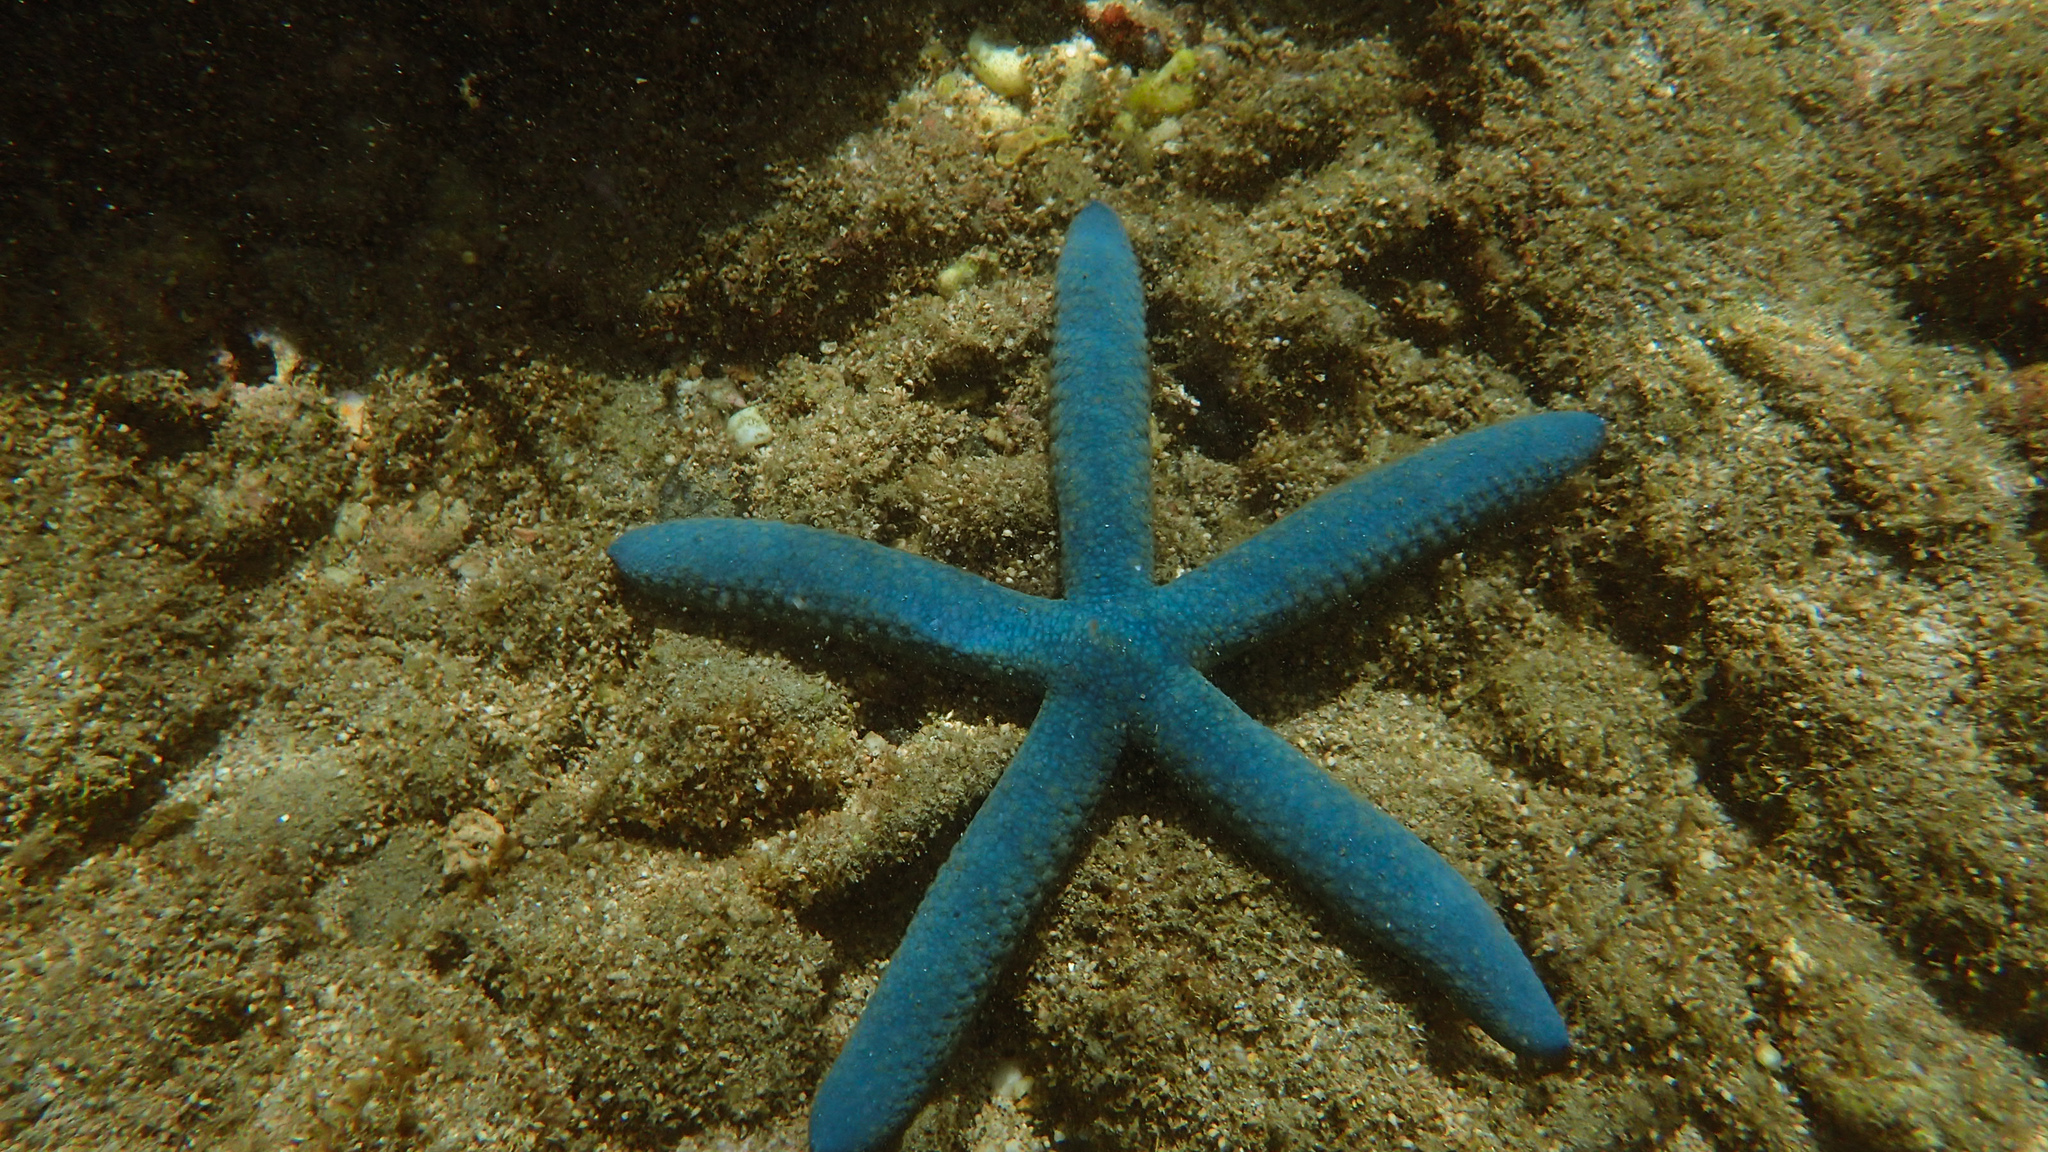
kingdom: Animalia
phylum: Echinodermata
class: Asteroidea
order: Valvatida
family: Ophidiasteridae
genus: Linckia
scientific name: Linckia laevigata
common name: Azure sea star
